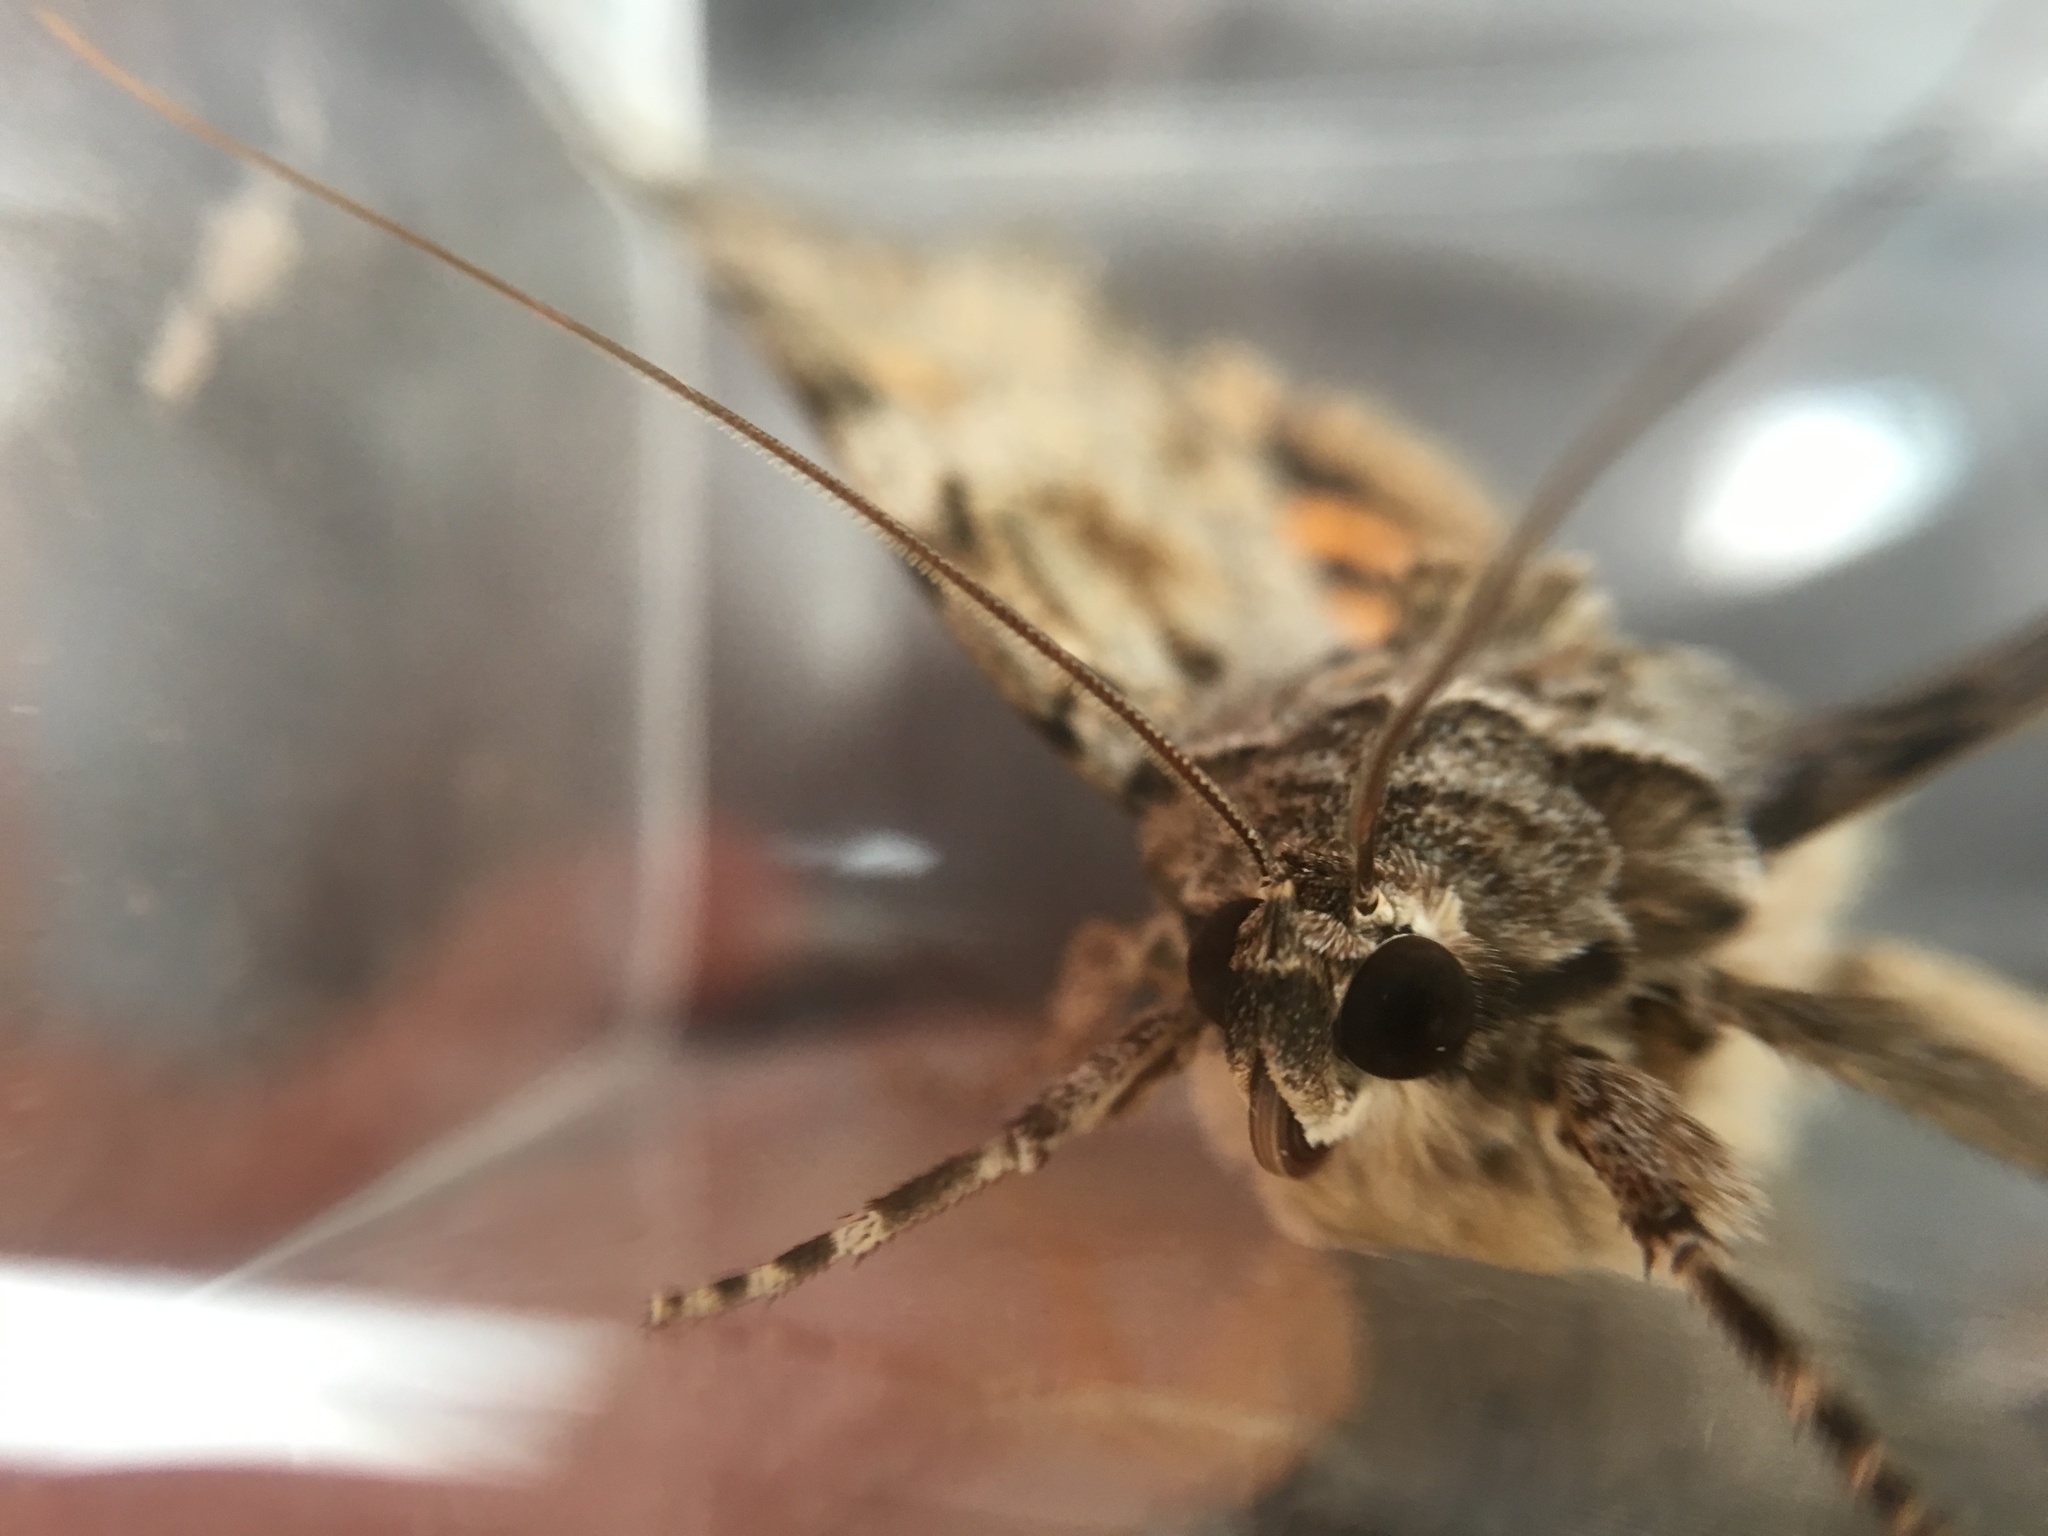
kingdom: Animalia
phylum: Arthropoda
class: Insecta
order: Lepidoptera
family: Erebidae
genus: Catocala
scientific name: Catocala neogama
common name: Bride underwing
